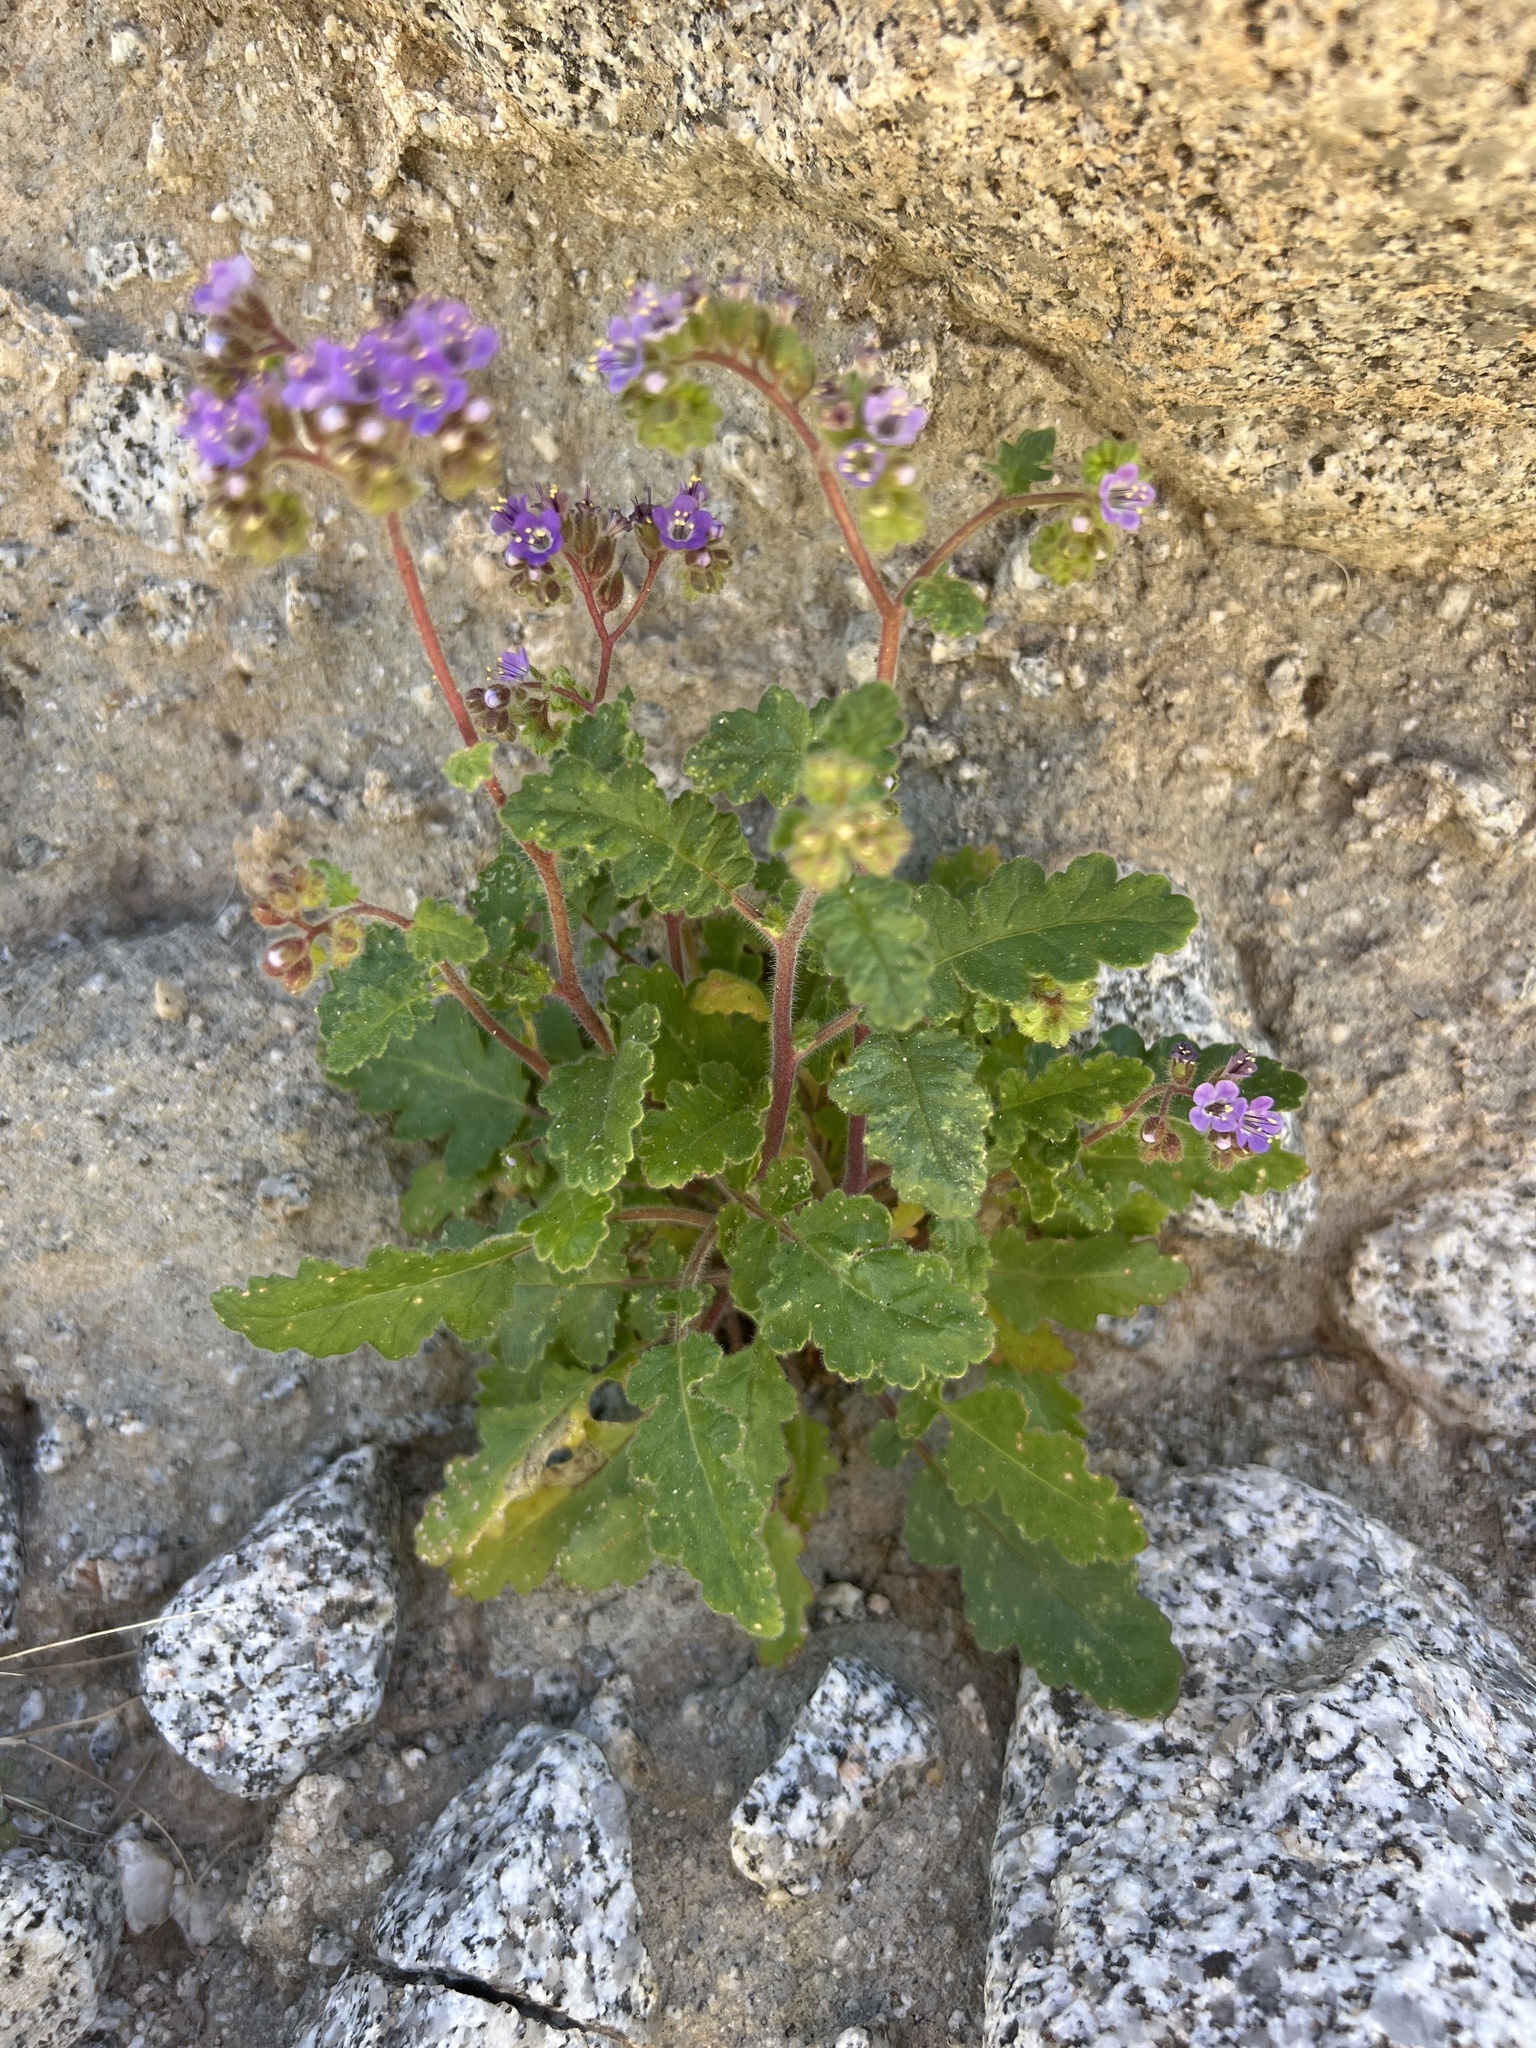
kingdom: Plantae
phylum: Tracheophyta
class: Magnoliopsida
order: Boraginales
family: Hydrophyllaceae
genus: Phacelia
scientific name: Phacelia minutiflora
